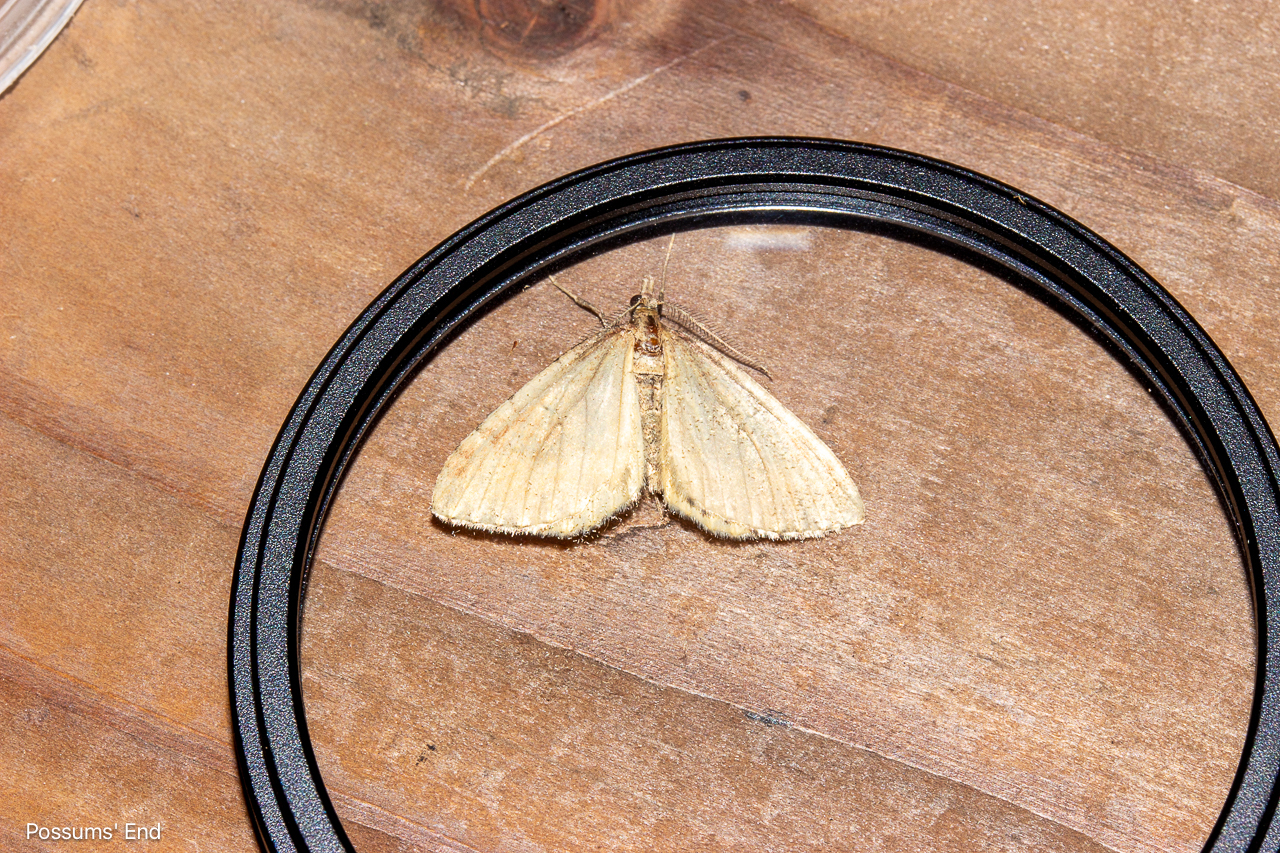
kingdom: Animalia
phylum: Arthropoda
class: Insecta
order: Lepidoptera
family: Geometridae
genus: Asaphodes
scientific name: Asaphodes aegrota
